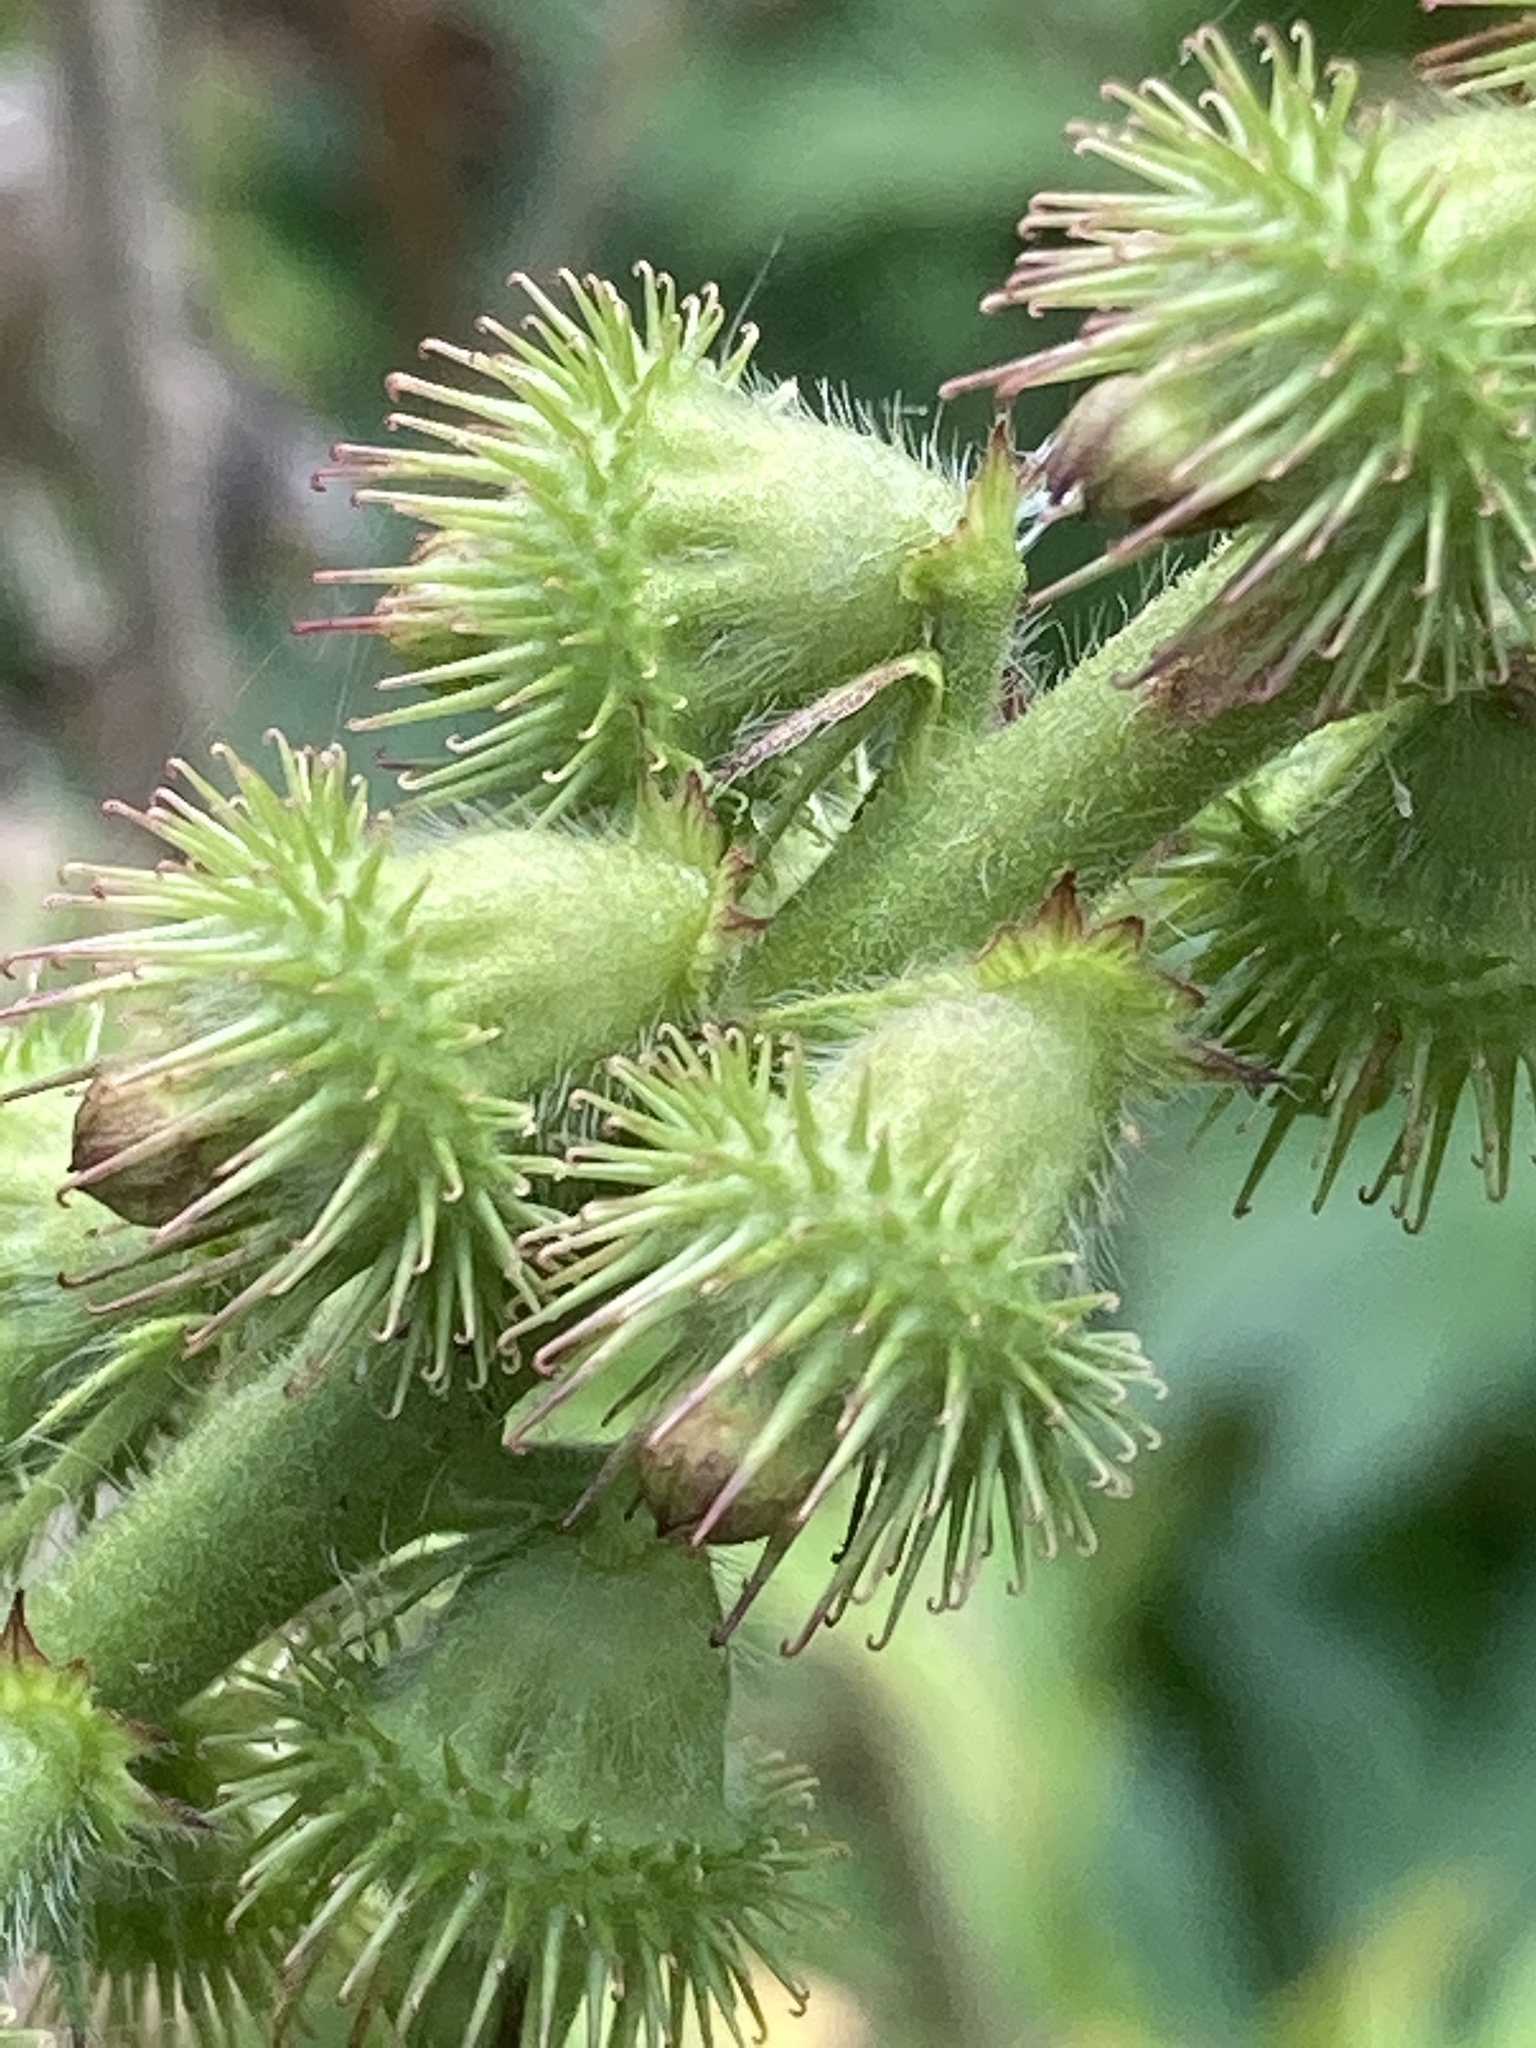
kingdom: Plantae
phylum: Tracheophyta
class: Magnoliopsida
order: Rosales
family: Rosaceae
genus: Agrimonia
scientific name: Agrimonia procera
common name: Fragrant agrimony
